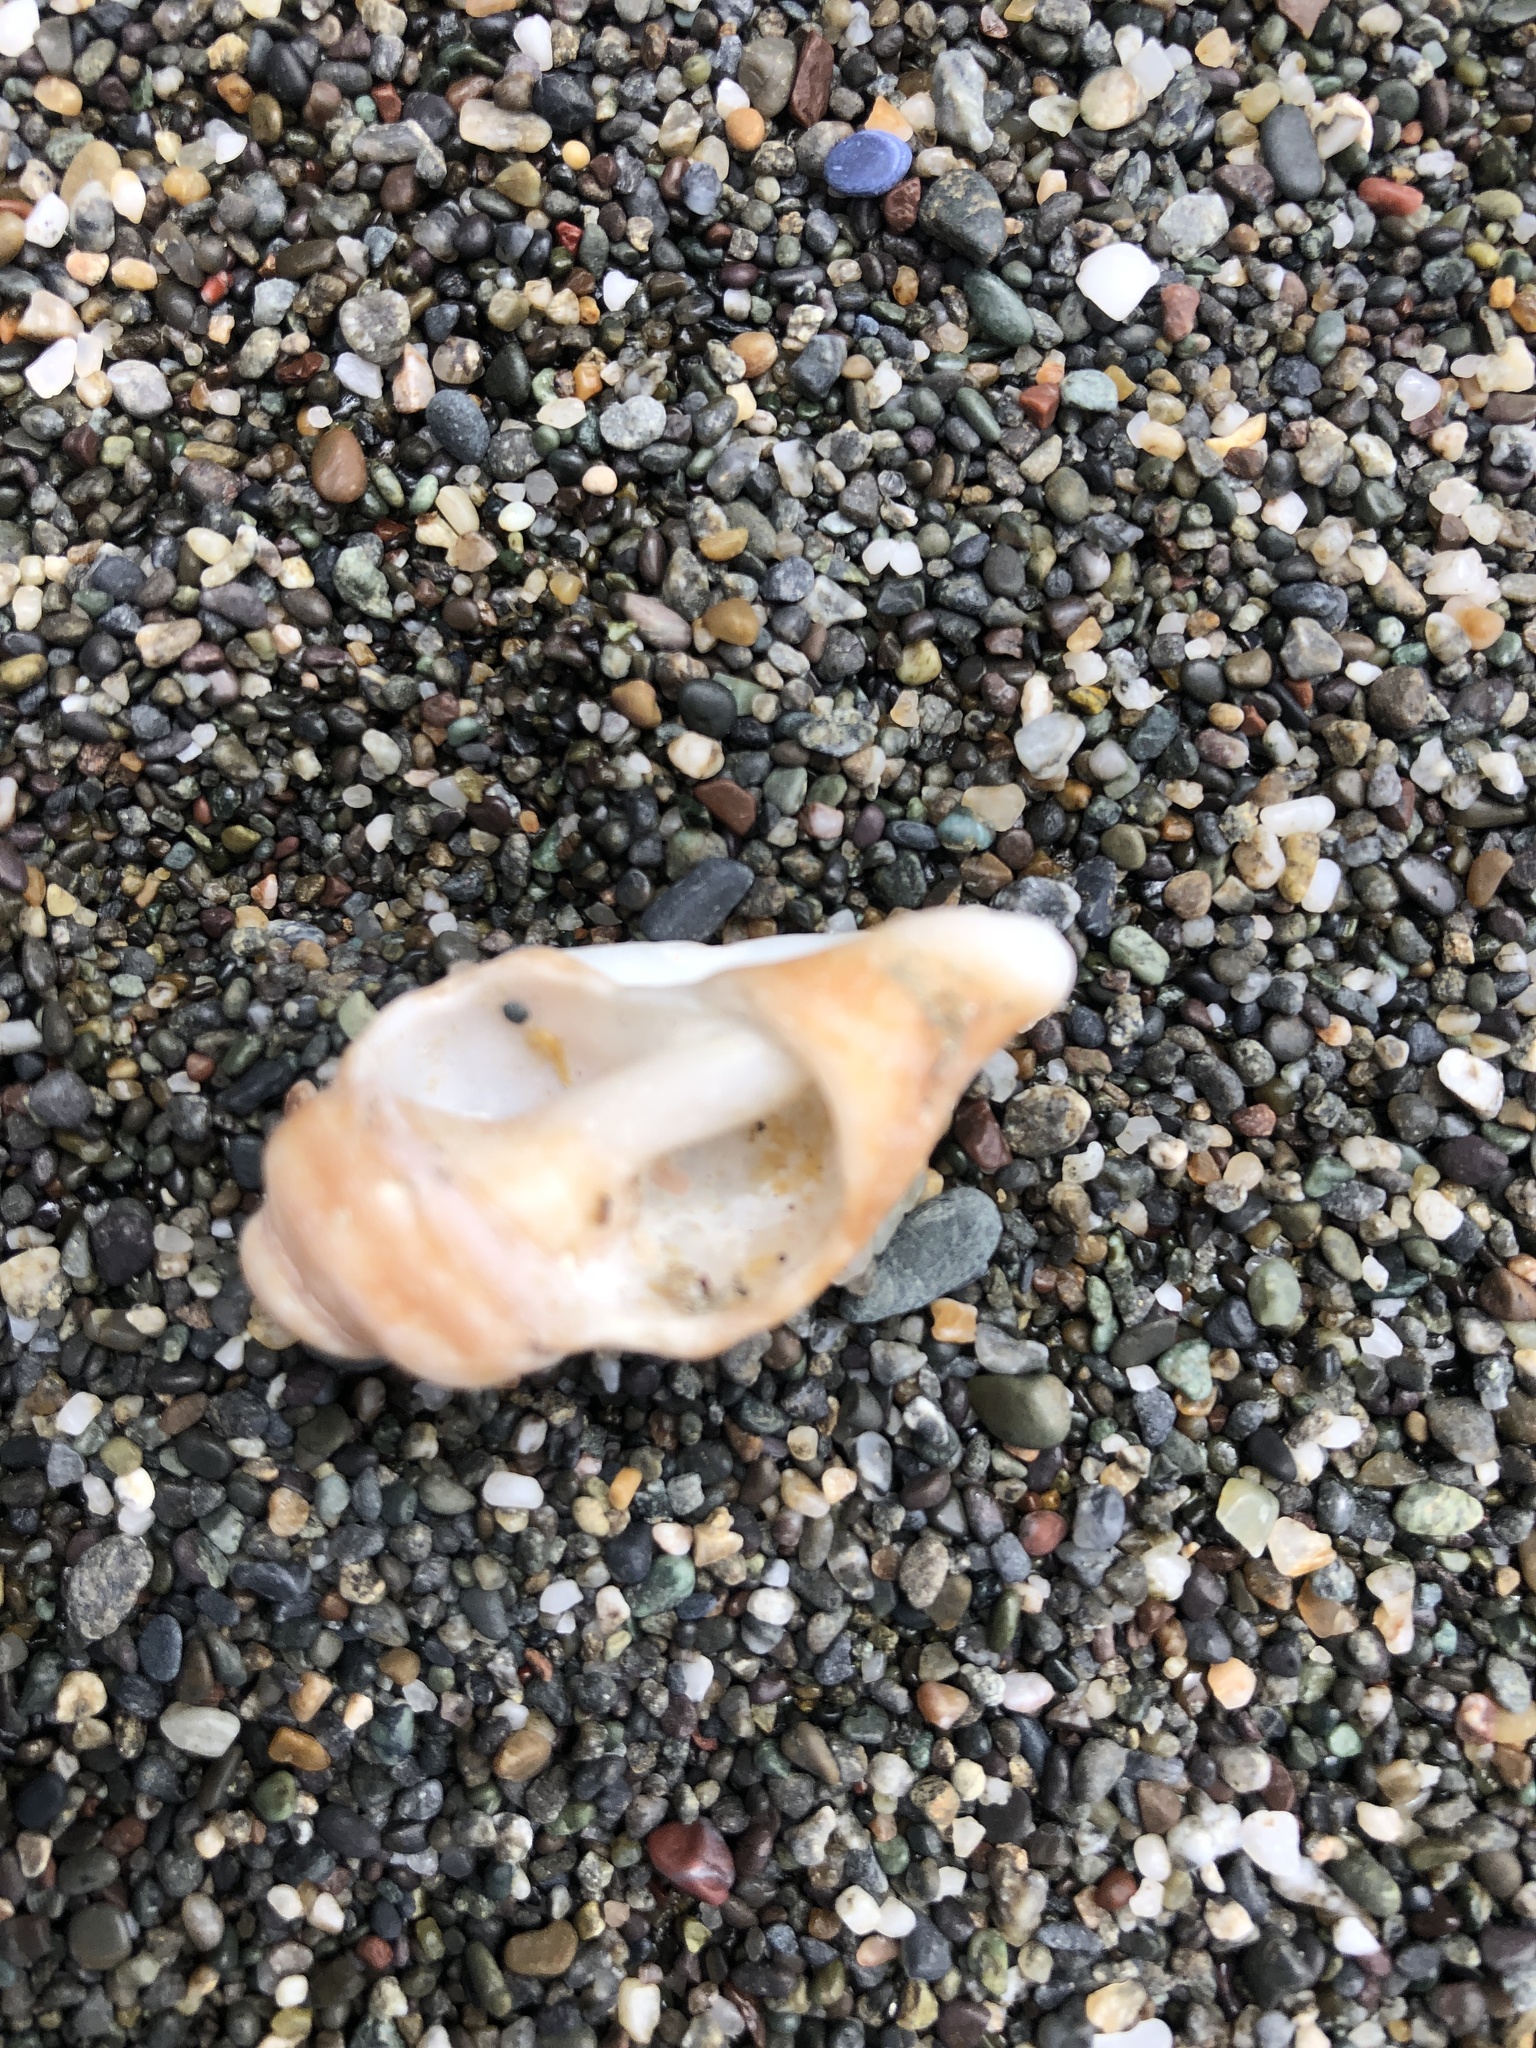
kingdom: Animalia
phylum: Mollusca
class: Gastropoda
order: Neogastropoda
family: Muricidae
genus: Nucella
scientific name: Nucella lamellosa
